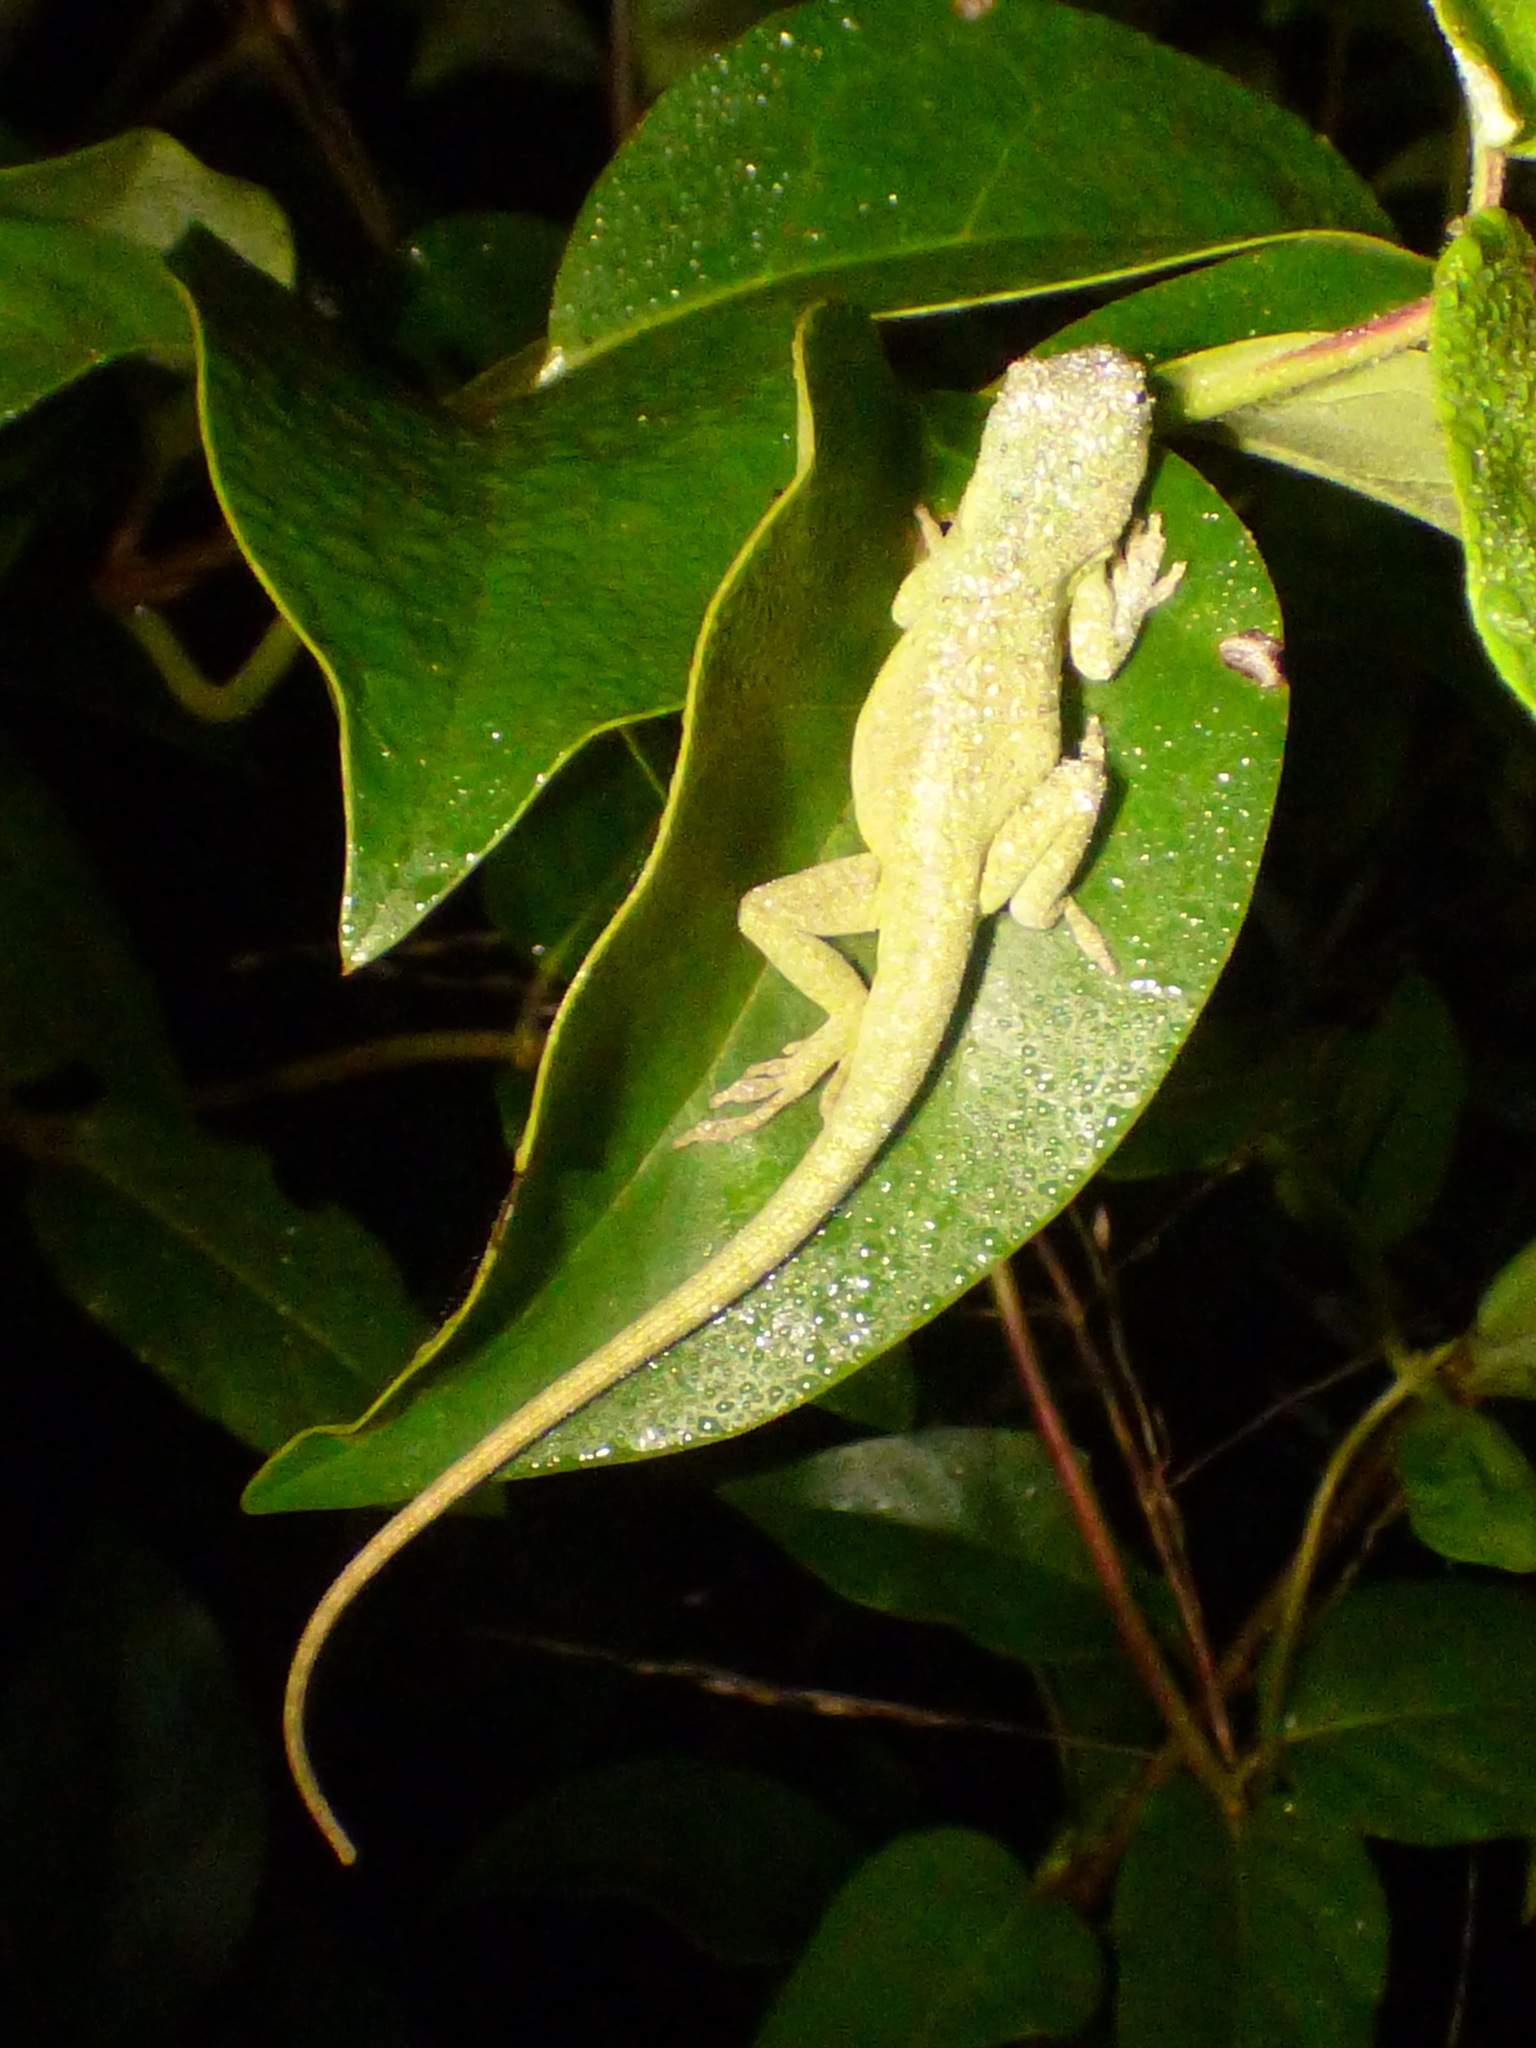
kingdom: Animalia
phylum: Chordata
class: Squamata
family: Dactyloidae
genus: Anolis
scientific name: Anolis carolinensis
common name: Green anole
